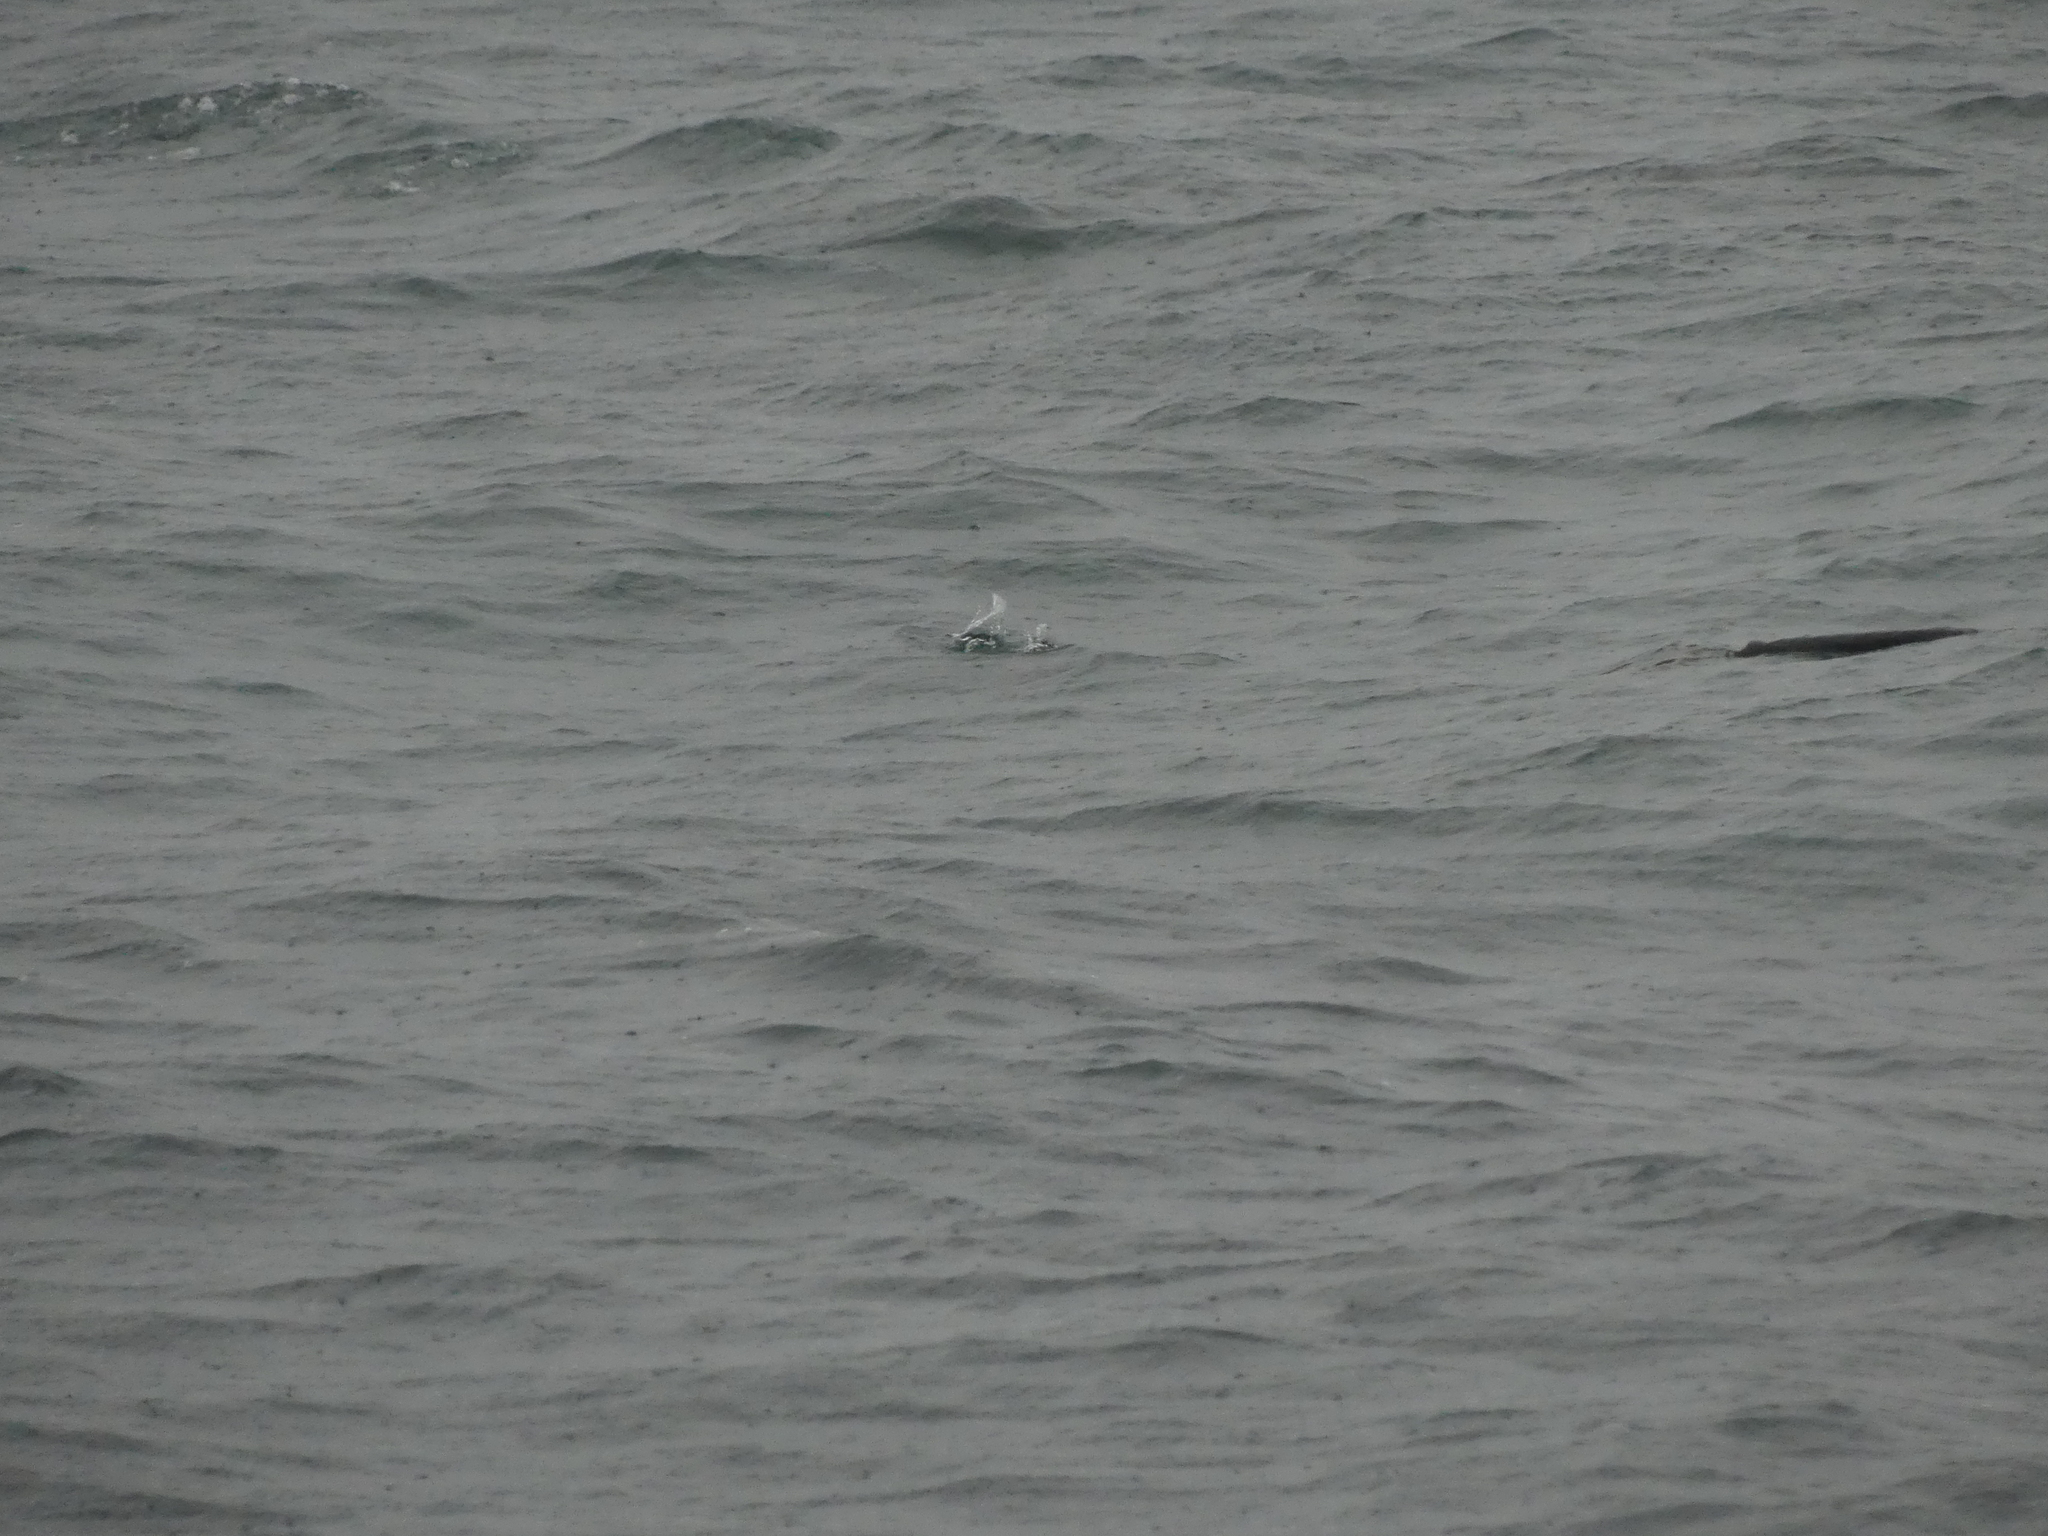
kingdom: Animalia
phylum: Chordata
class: Aves
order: Gaviiformes
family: Gaviidae
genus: Gavia
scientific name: Gavia stellata
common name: Red-throated loon
